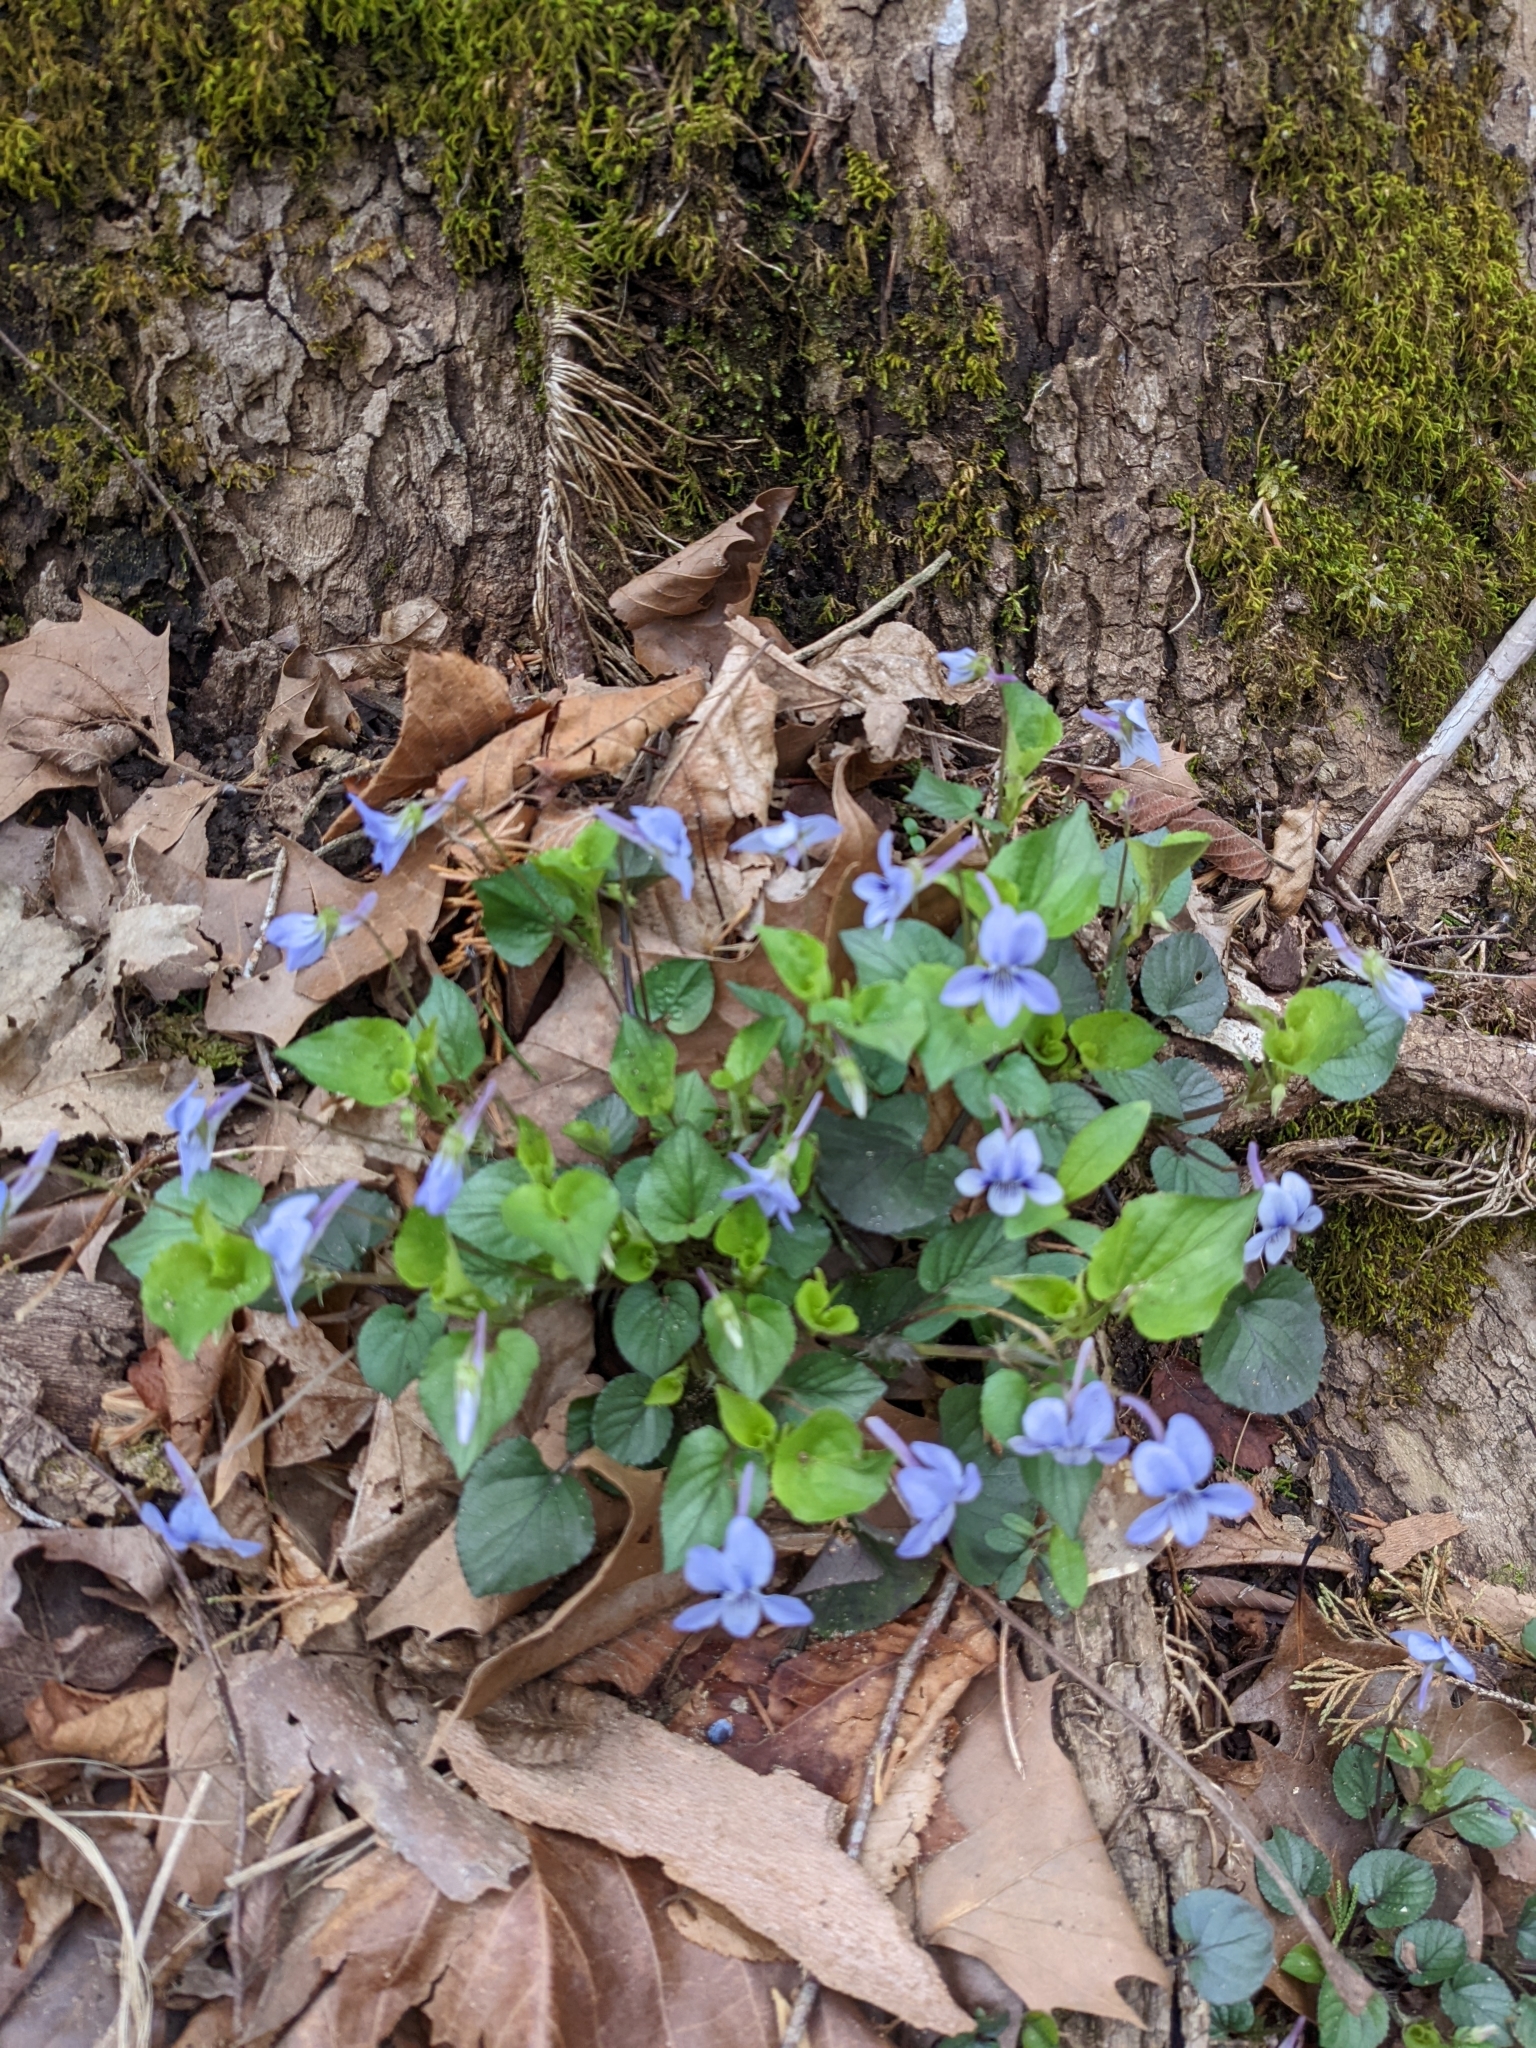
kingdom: Plantae
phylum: Tracheophyta
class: Magnoliopsida
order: Malpighiales
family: Violaceae
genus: Viola
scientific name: Viola rostrata
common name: Long-spur violet
